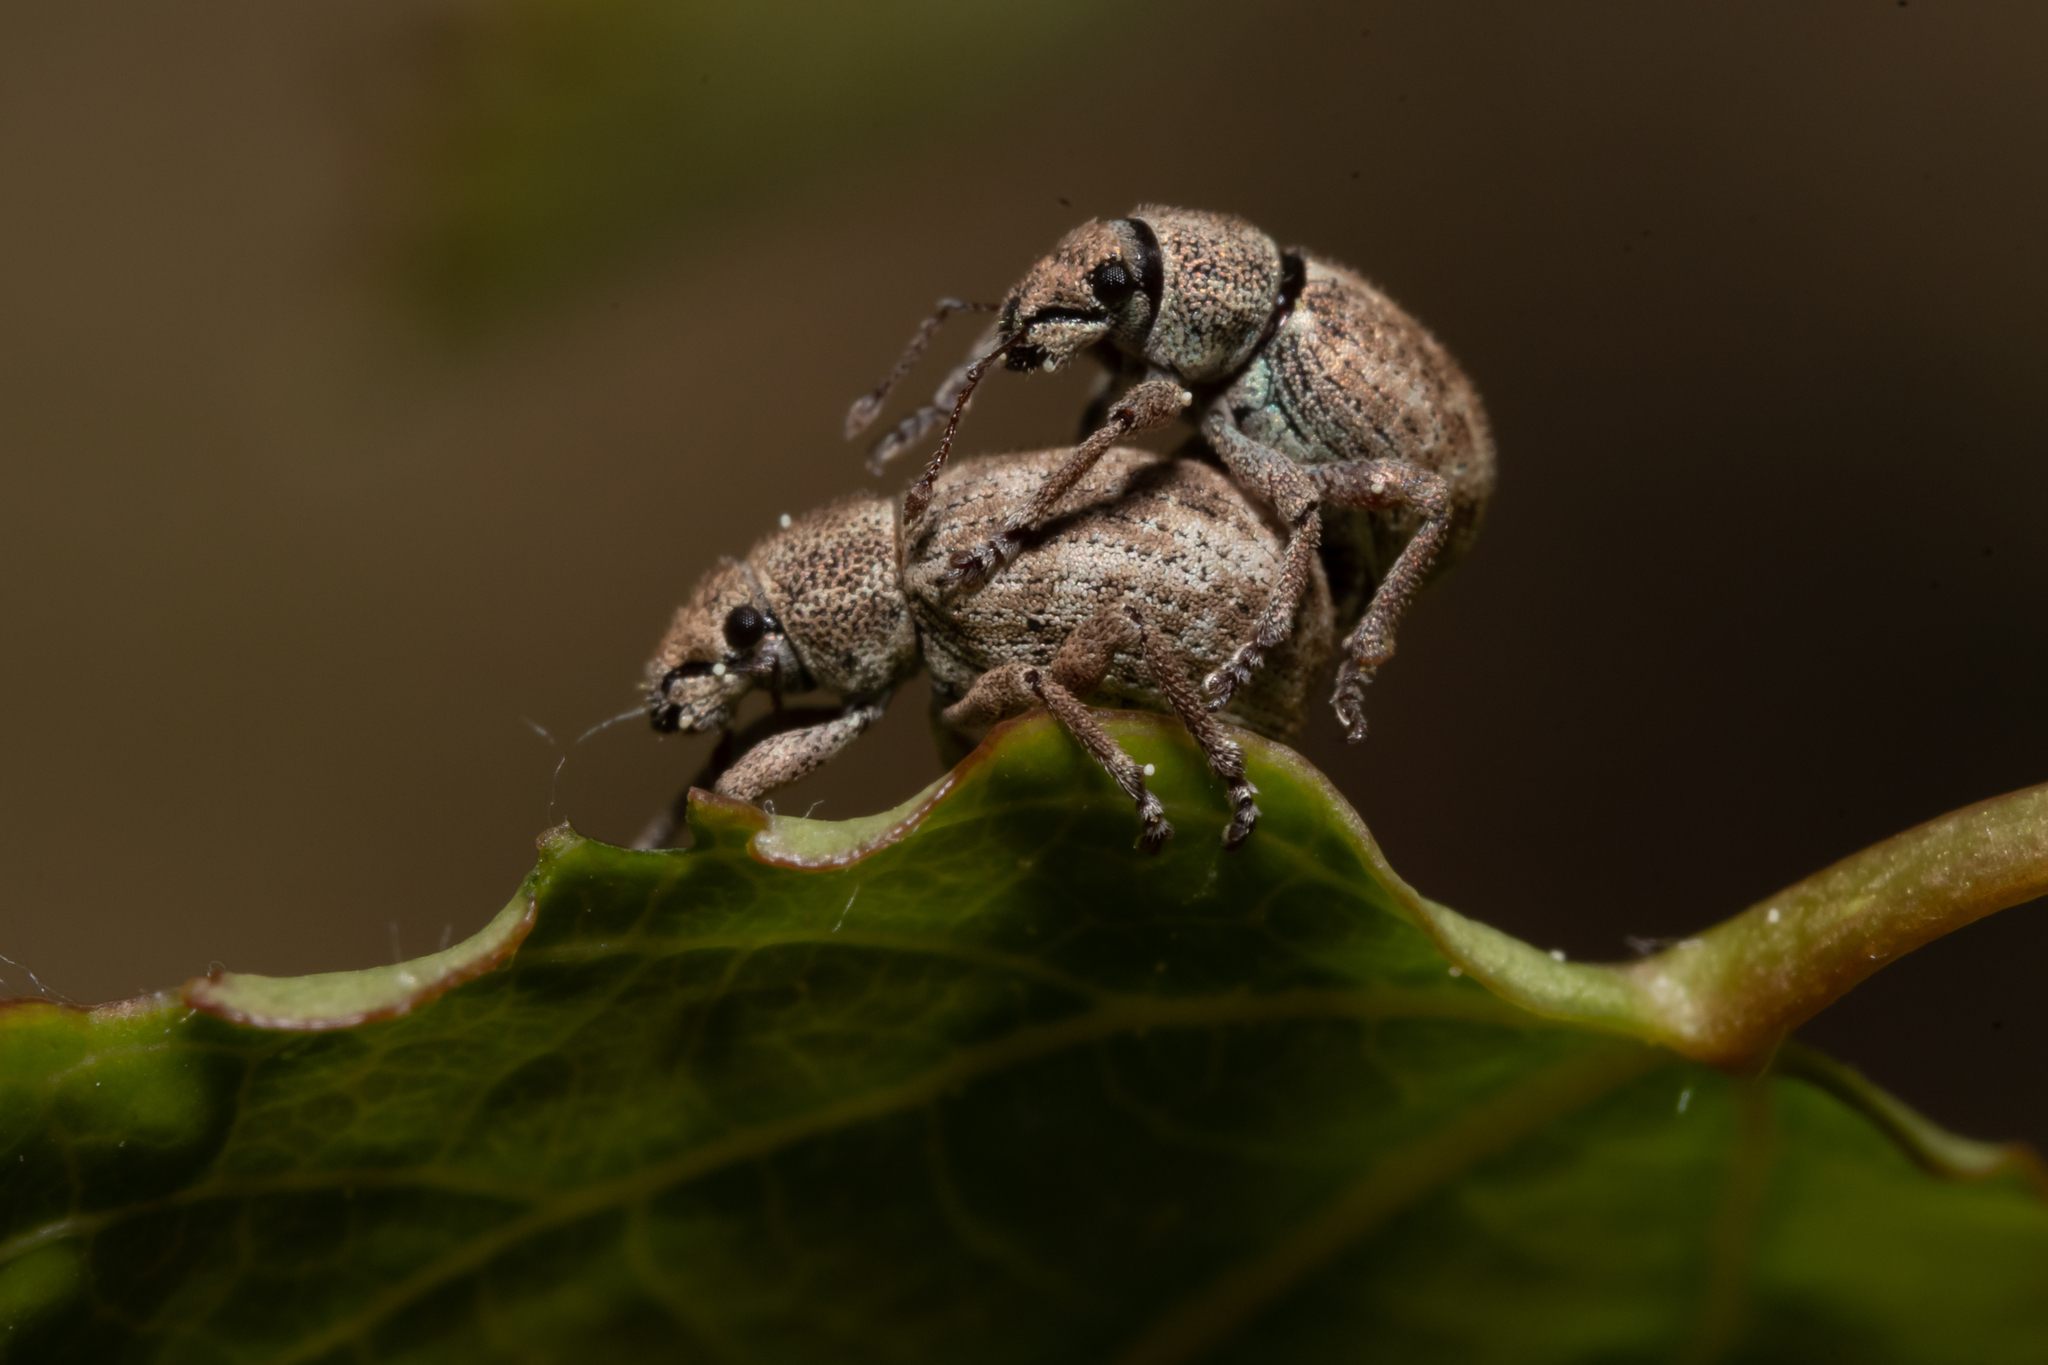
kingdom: Animalia
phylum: Arthropoda
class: Insecta
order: Coleoptera
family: Curculionidae
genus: Strophosoma
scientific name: Strophosoma capitatum
